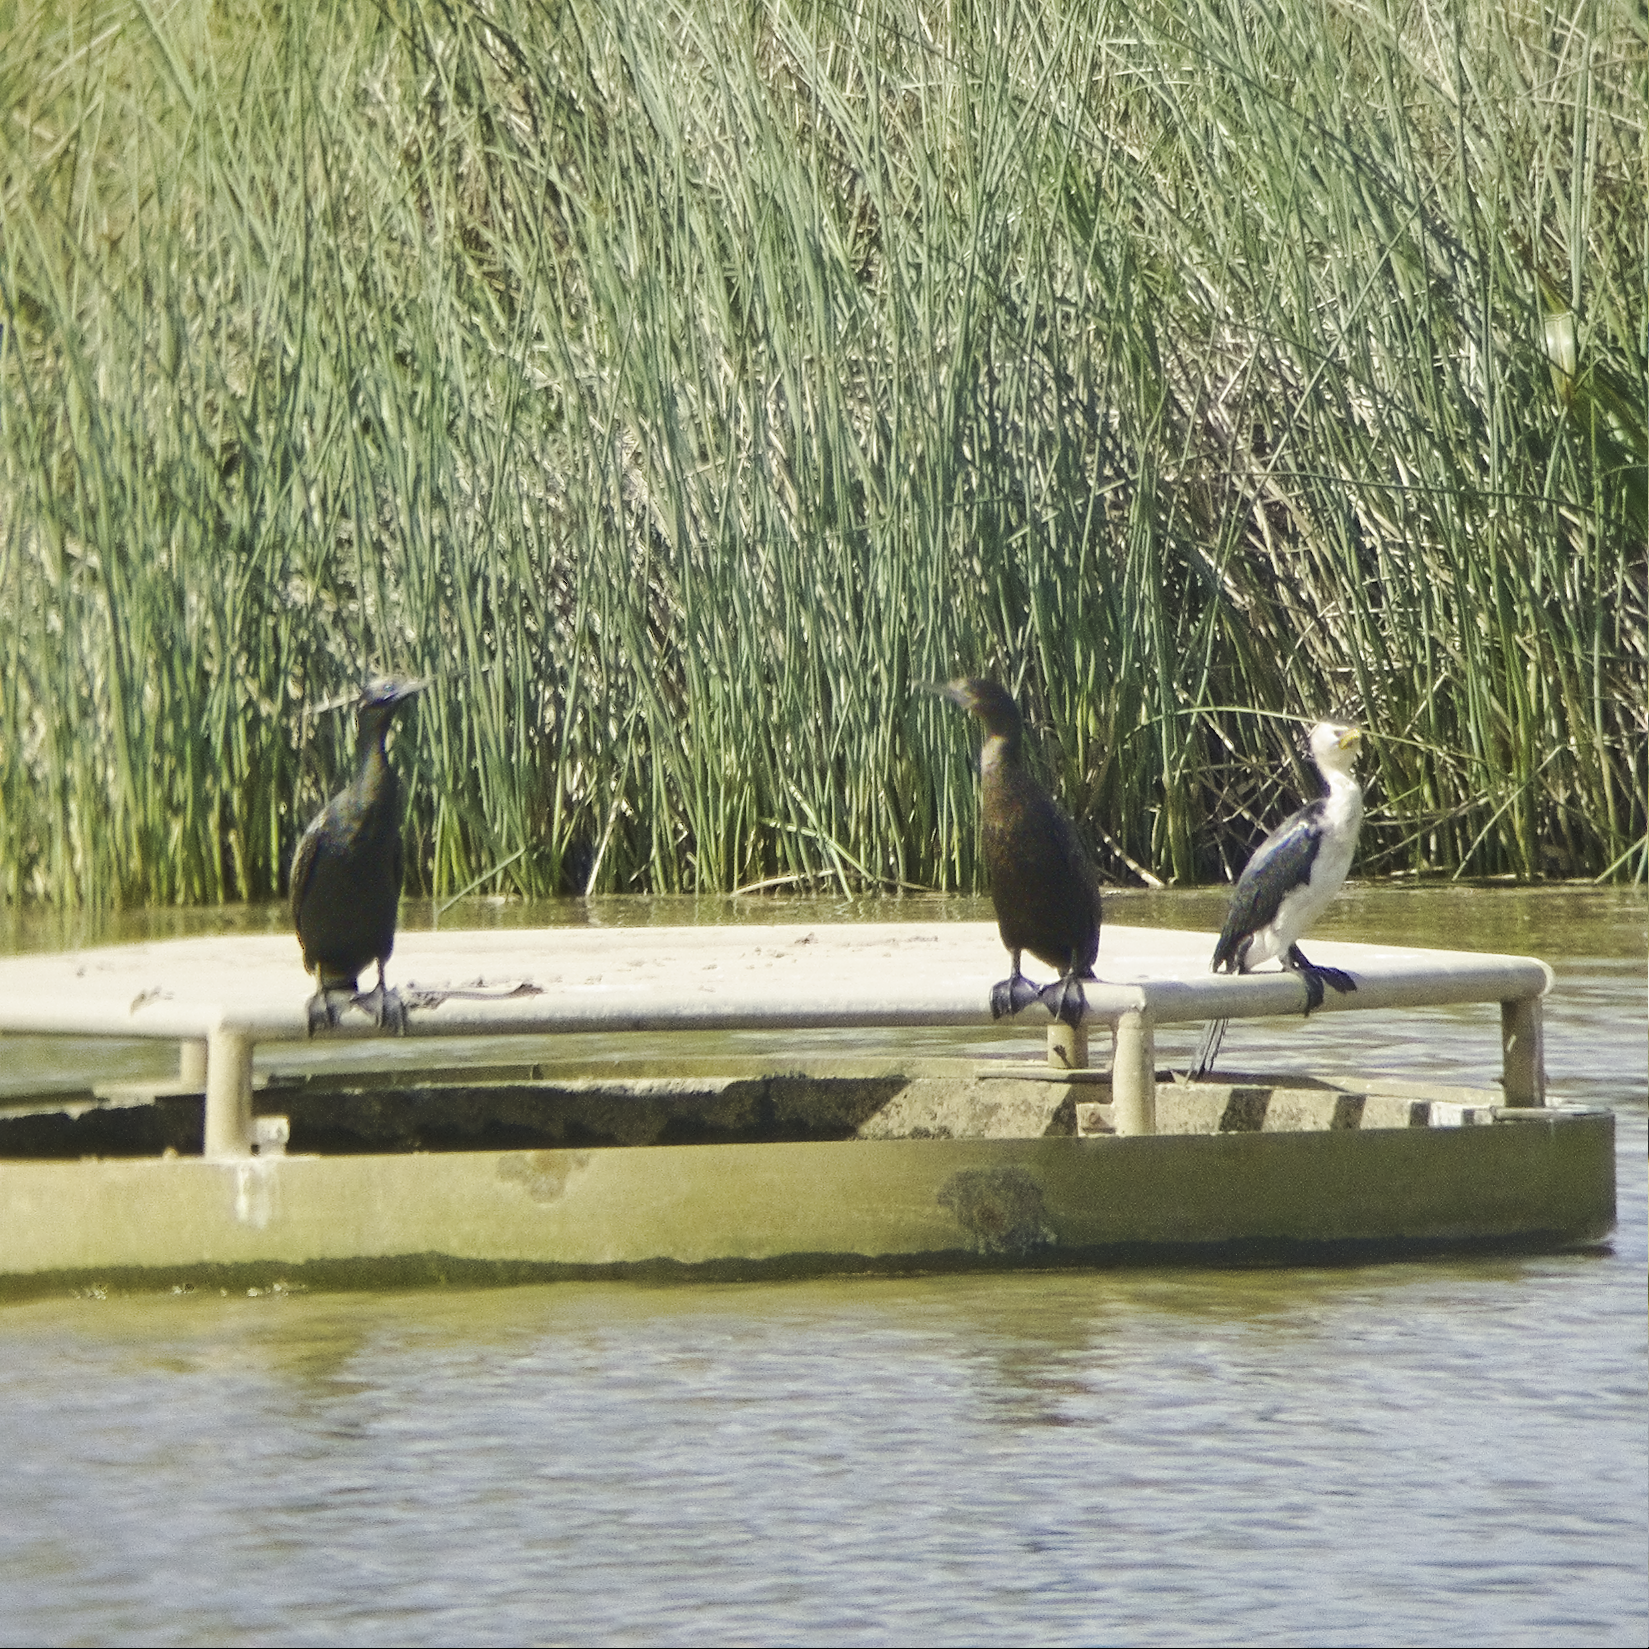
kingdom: Animalia
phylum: Chordata
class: Aves
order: Suliformes
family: Phalacrocoracidae
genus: Phalacrocorax
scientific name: Phalacrocorax sulcirostris
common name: Little black cormorant
